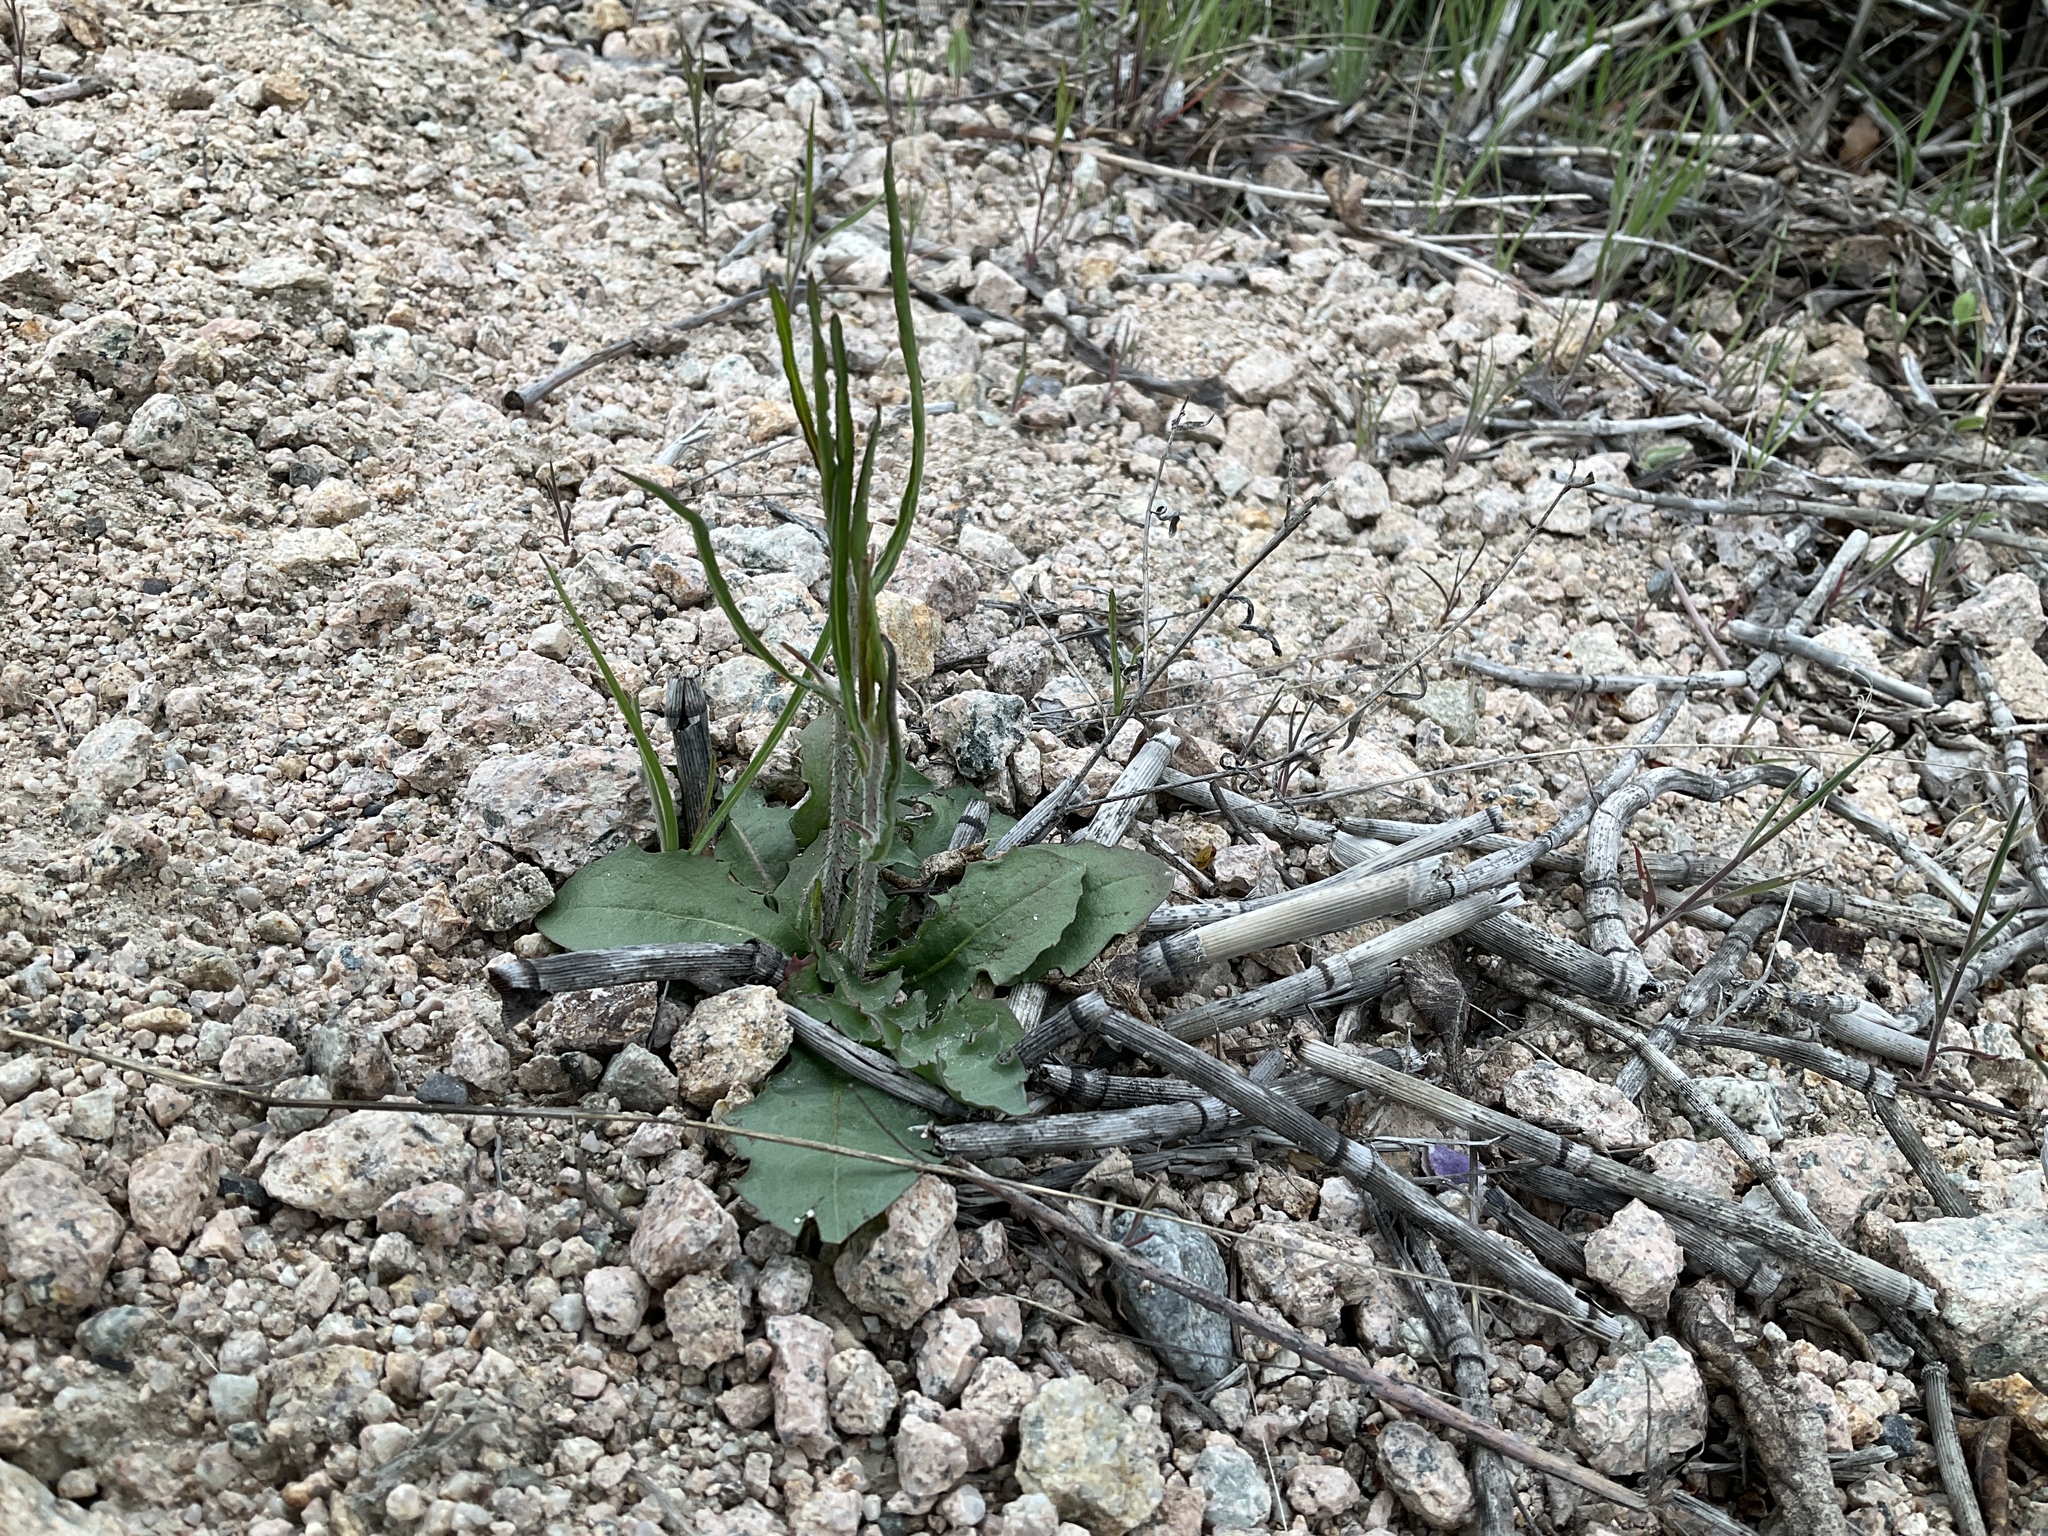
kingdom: Plantae
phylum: Tracheophyta
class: Magnoliopsida
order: Asterales
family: Asteraceae
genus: Chondrilla
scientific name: Chondrilla juncea
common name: Skeleton weed
